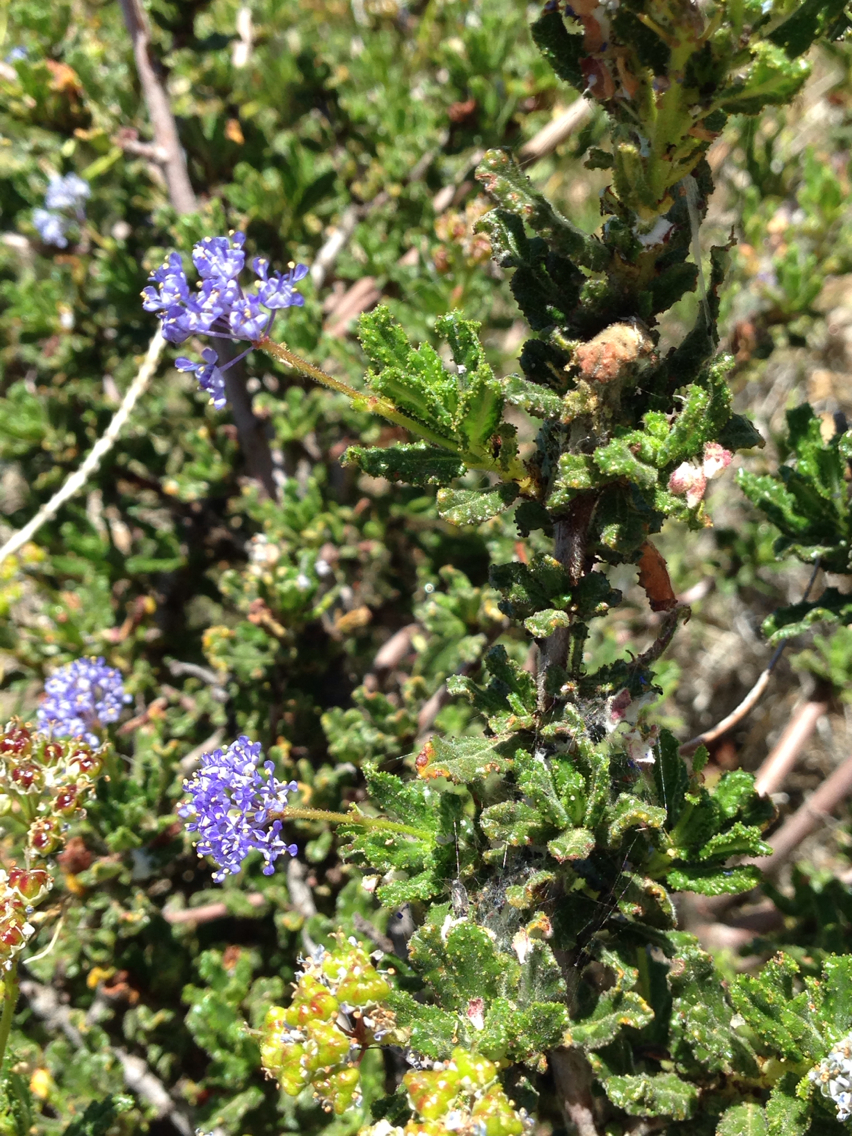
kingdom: Plantae
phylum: Tracheophyta
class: Magnoliopsida
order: Rosales
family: Rhamnaceae
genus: Ceanothus
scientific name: Ceanothus papillosus
